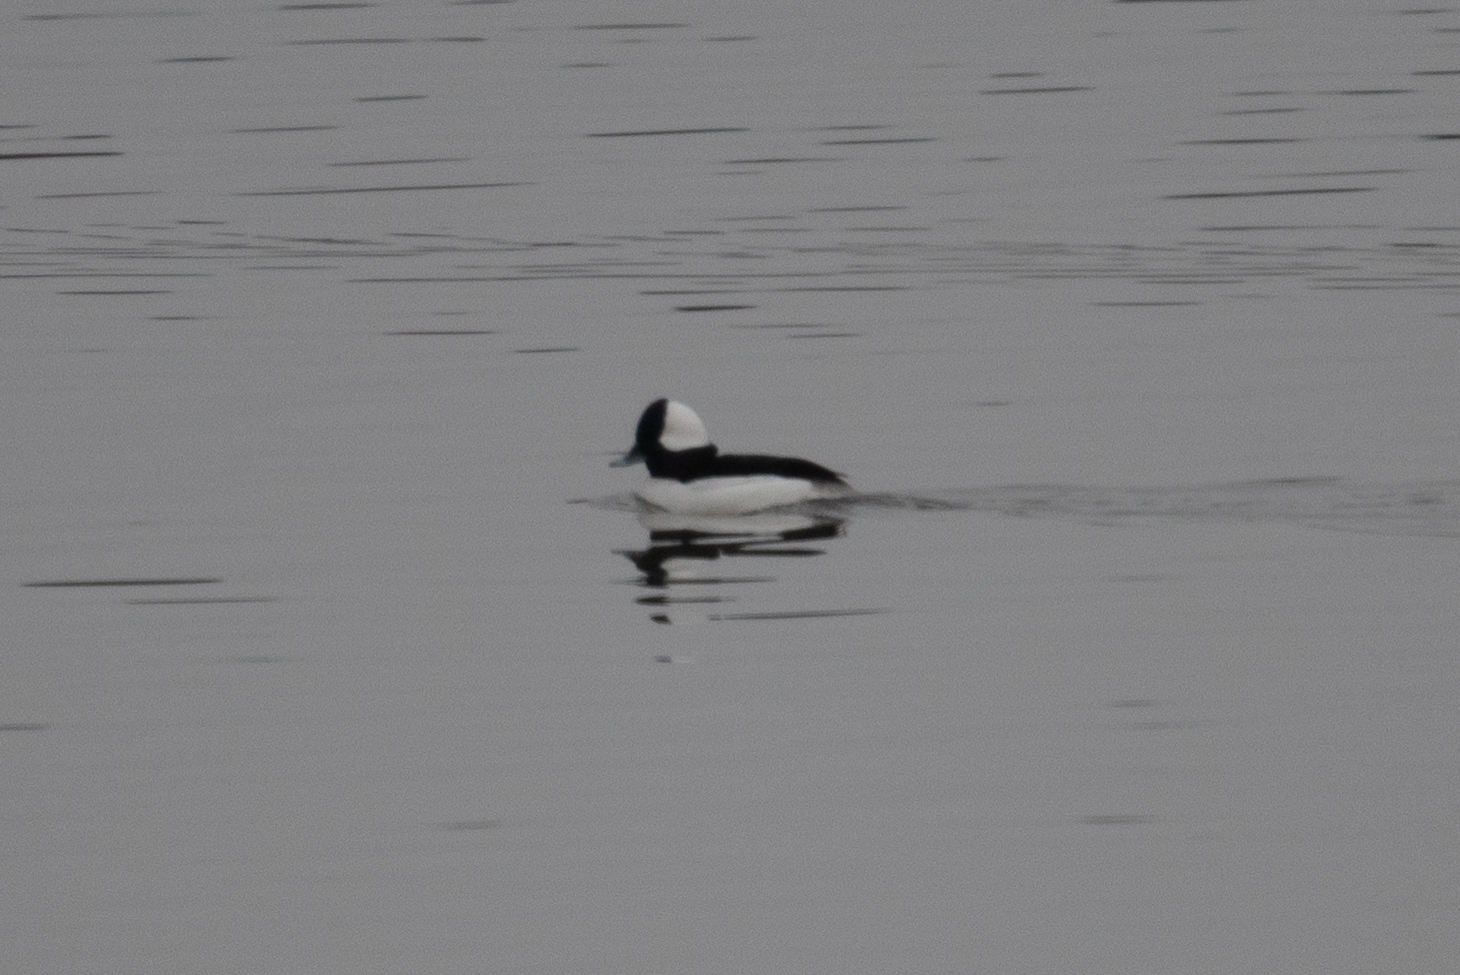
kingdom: Animalia
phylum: Chordata
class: Aves
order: Anseriformes
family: Anatidae
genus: Bucephala
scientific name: Bucephala albeola
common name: Bufflehead
